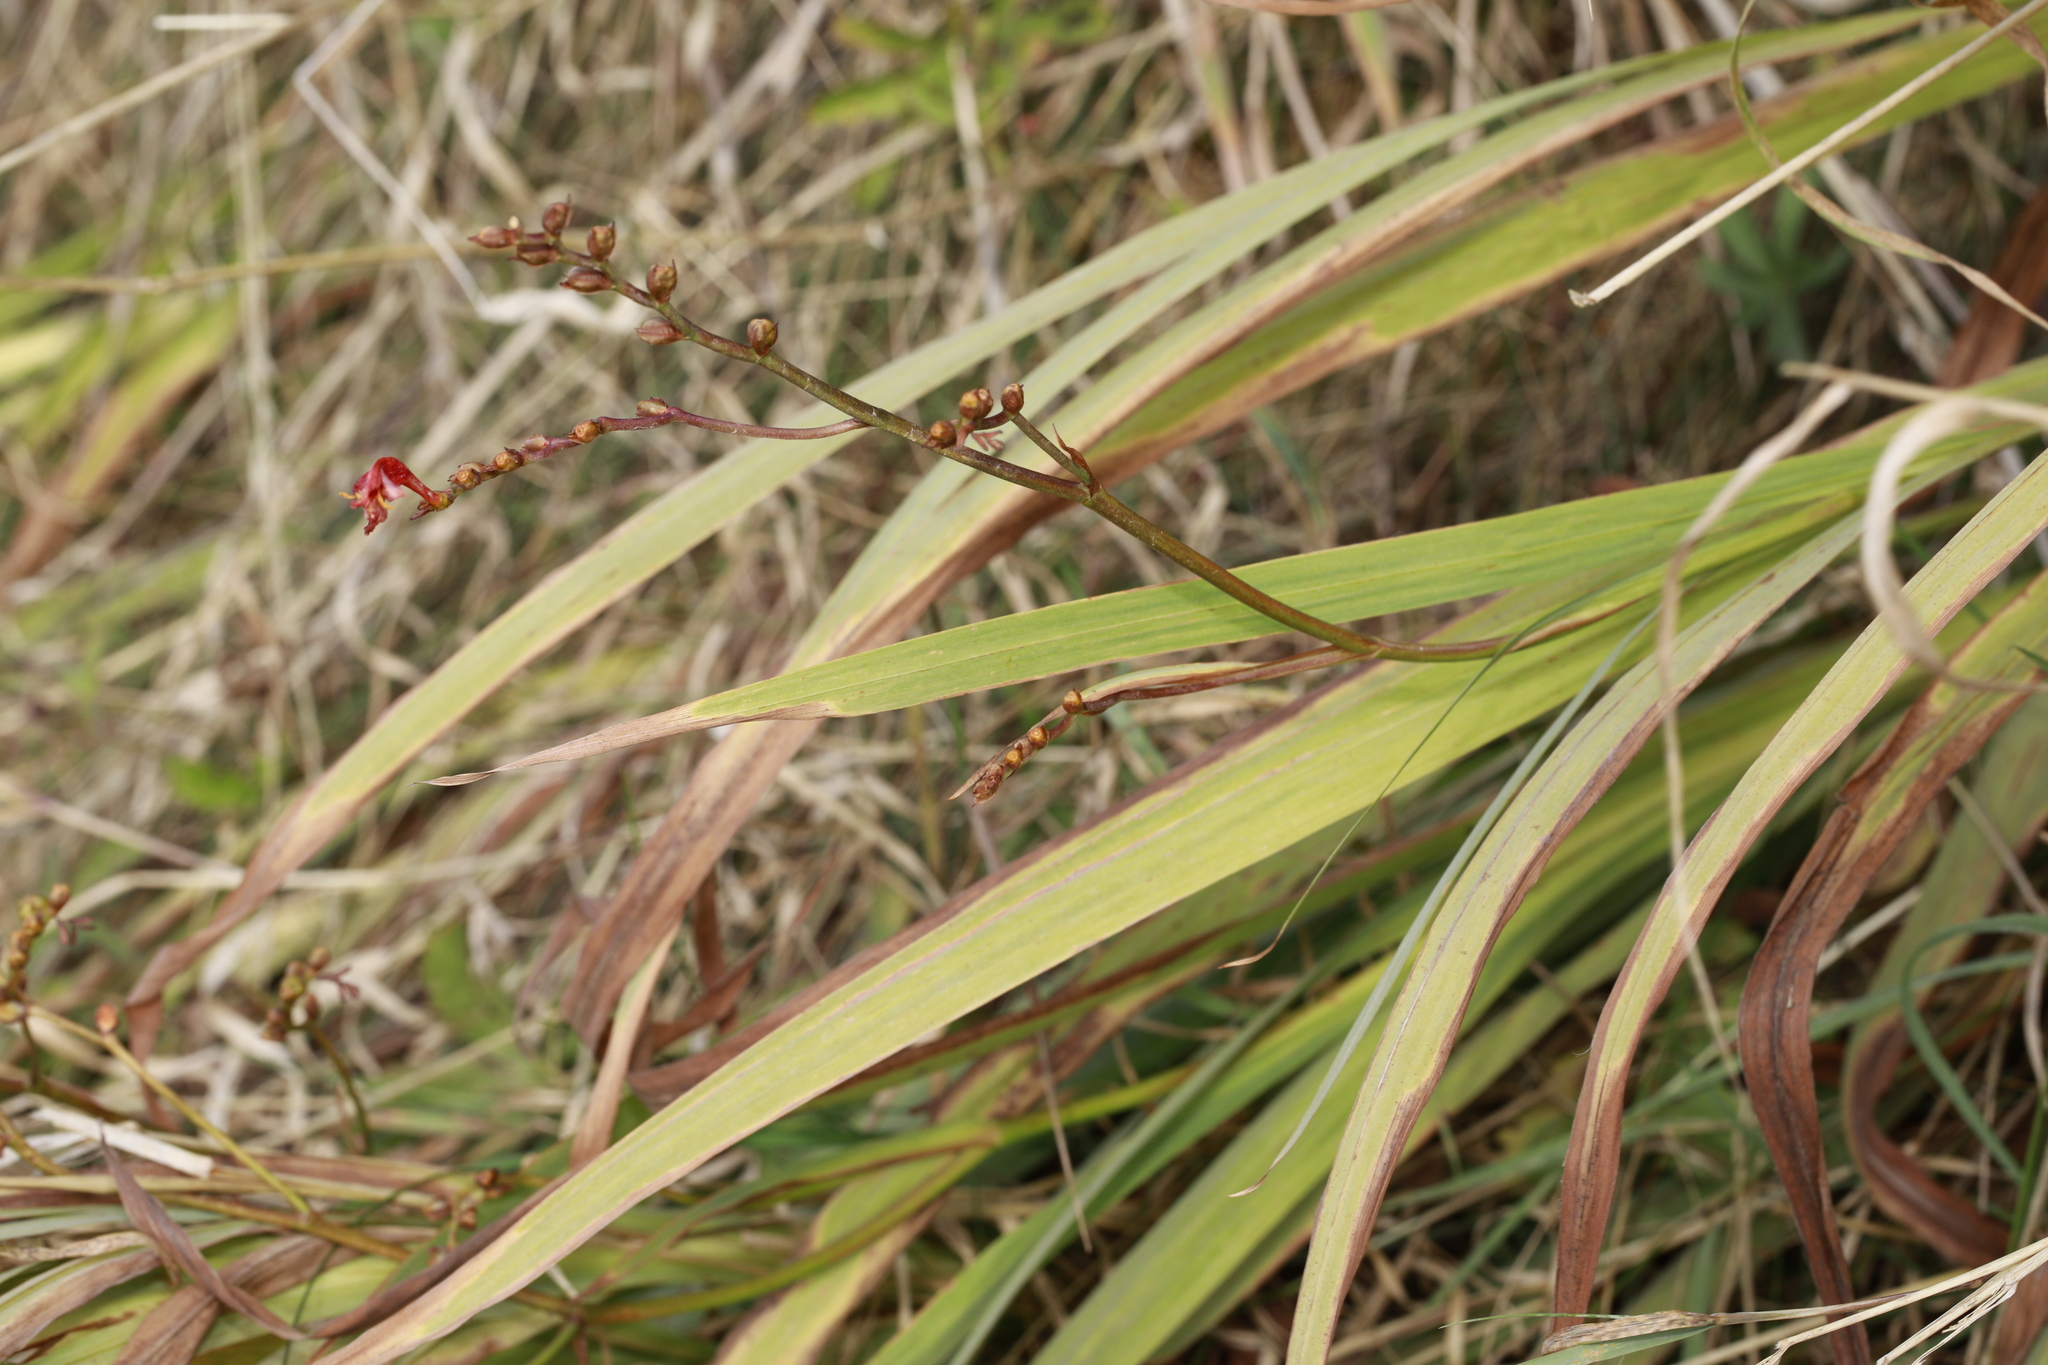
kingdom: Plantae
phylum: Tracheophyta
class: Liliopsida
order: Asparagales
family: Iridaceae
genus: Crocosmia
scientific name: Crocosmia crocosmiiflora
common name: Montbretia
